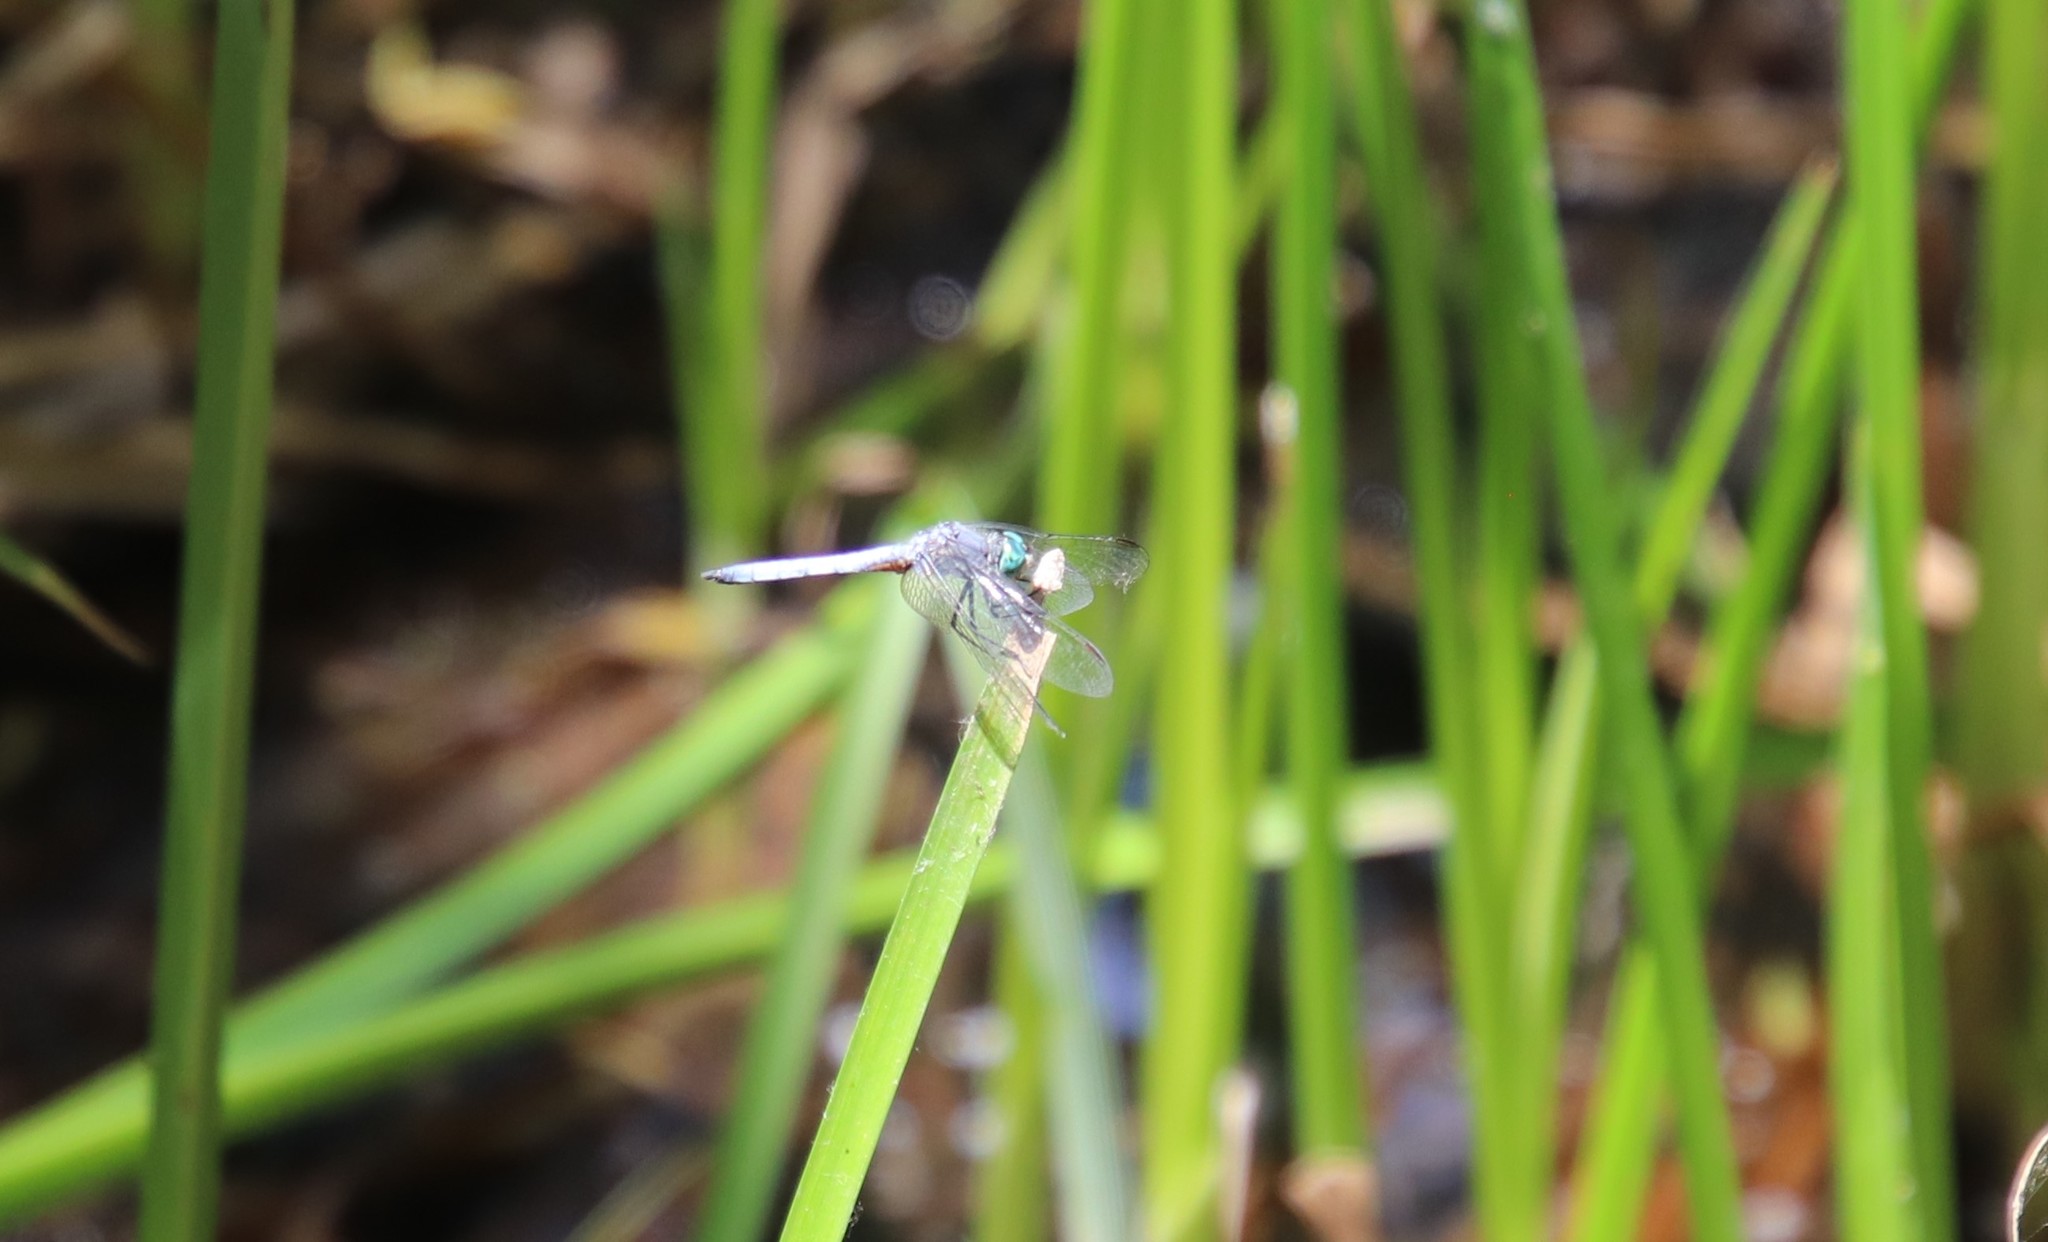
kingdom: Animalia
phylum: Arthropoda
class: Insecta
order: Odonata
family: Libellulidae
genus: Pachydiplax
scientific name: Pachydiplax longipennis
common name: Blue dasher
